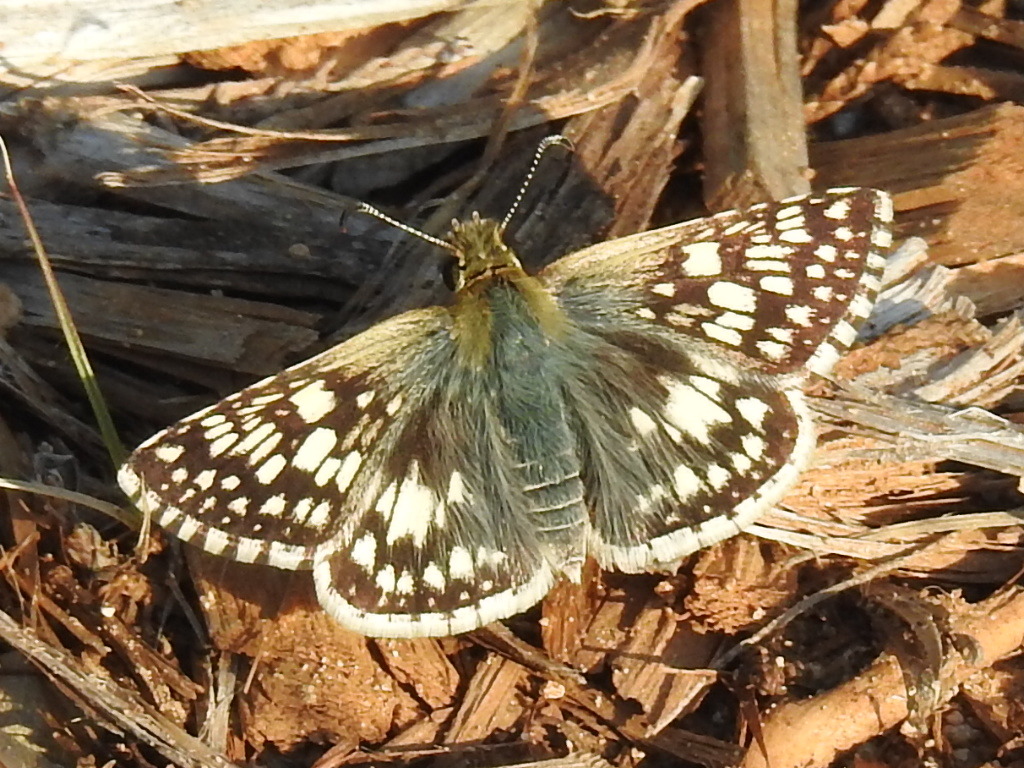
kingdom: Animalia
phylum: Arthropoda
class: Insecta
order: Lepidoptera
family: Hesperiidae
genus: Burnsius
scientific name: Burnsius communis
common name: Common checkered-skipper
